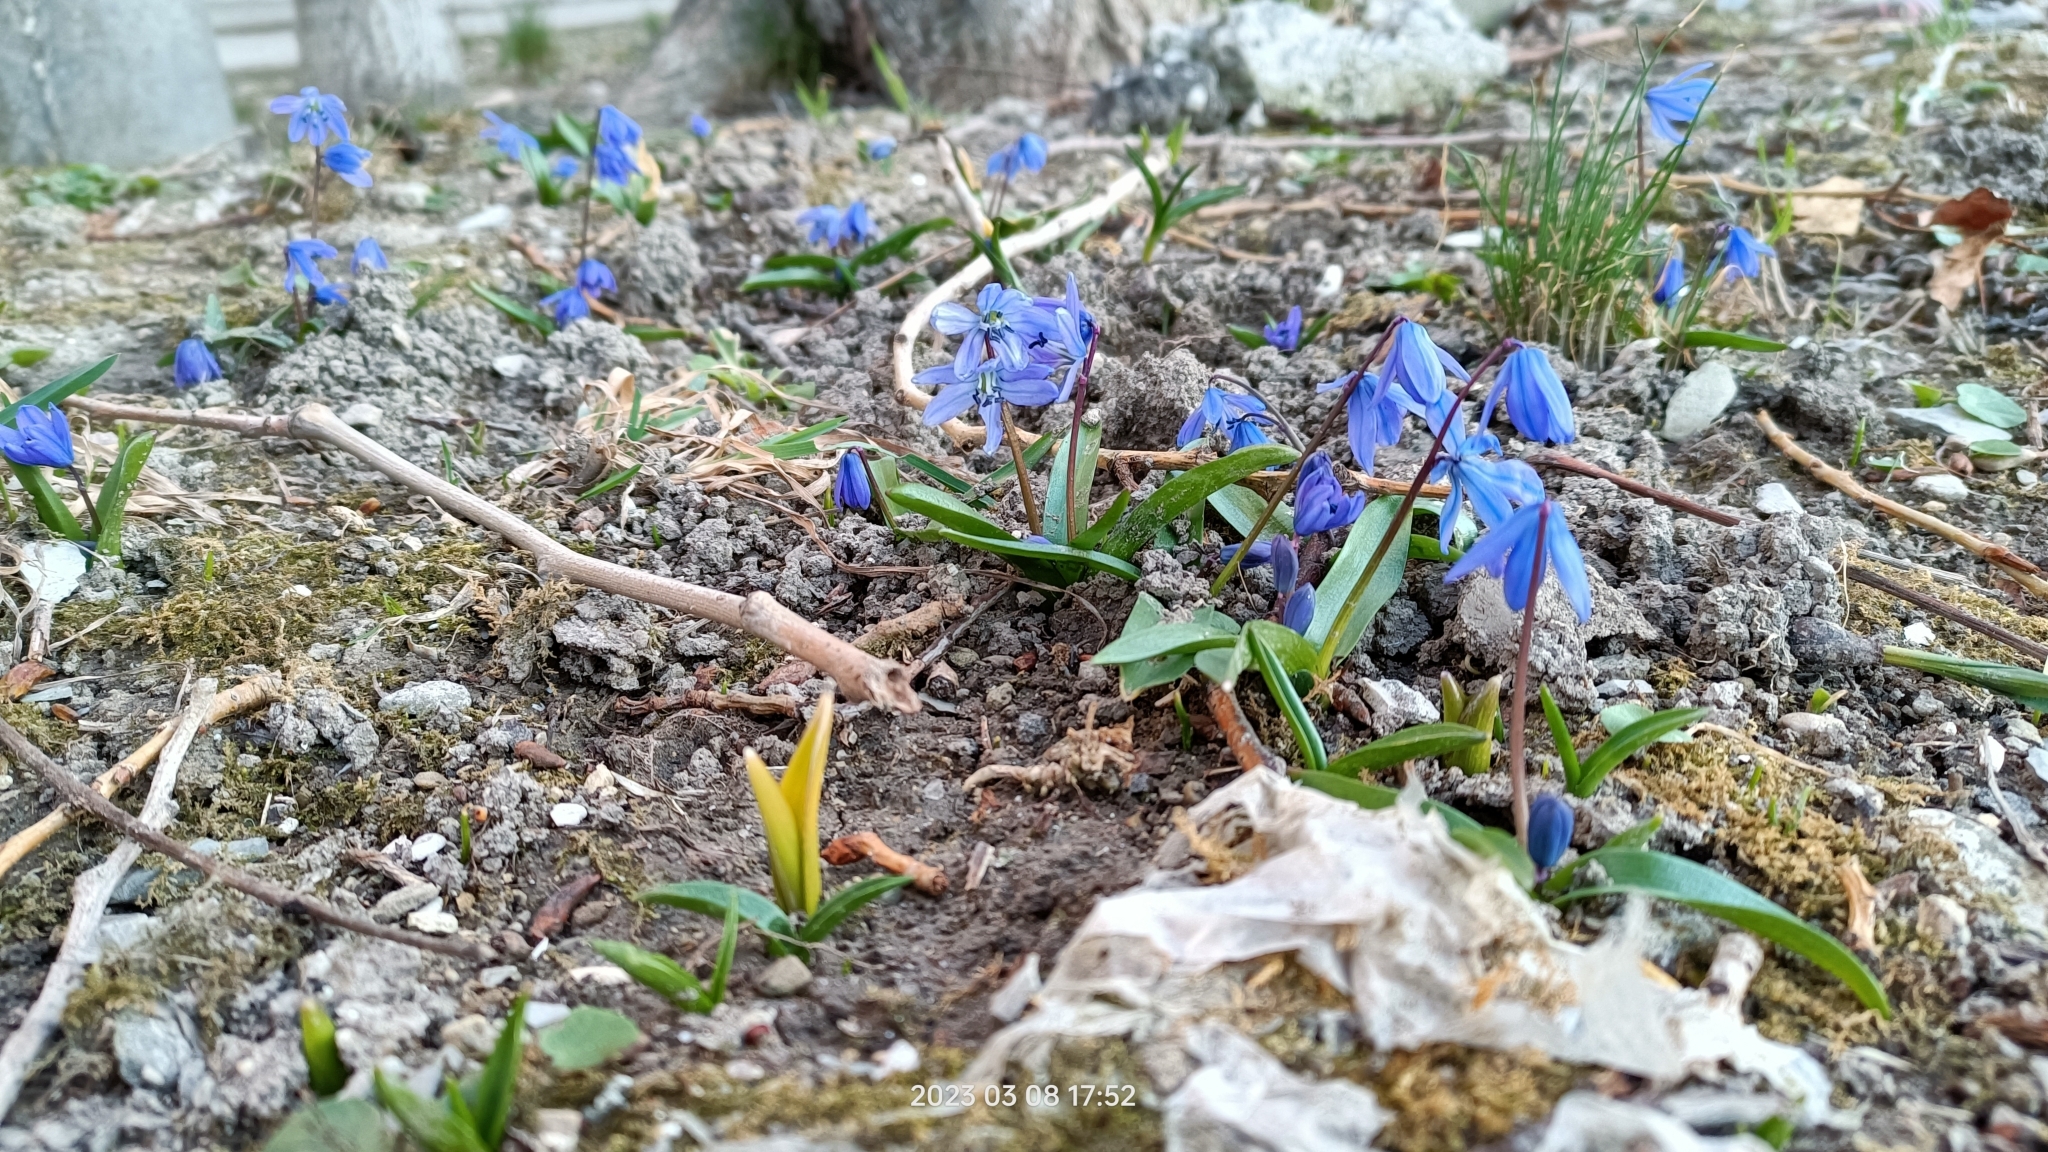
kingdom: Plantae
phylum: Tracheophyta
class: Liliopsida
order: Asparagales
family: Asparagaceae
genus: Scilla
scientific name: Scilla siberica
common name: Siberian squill
